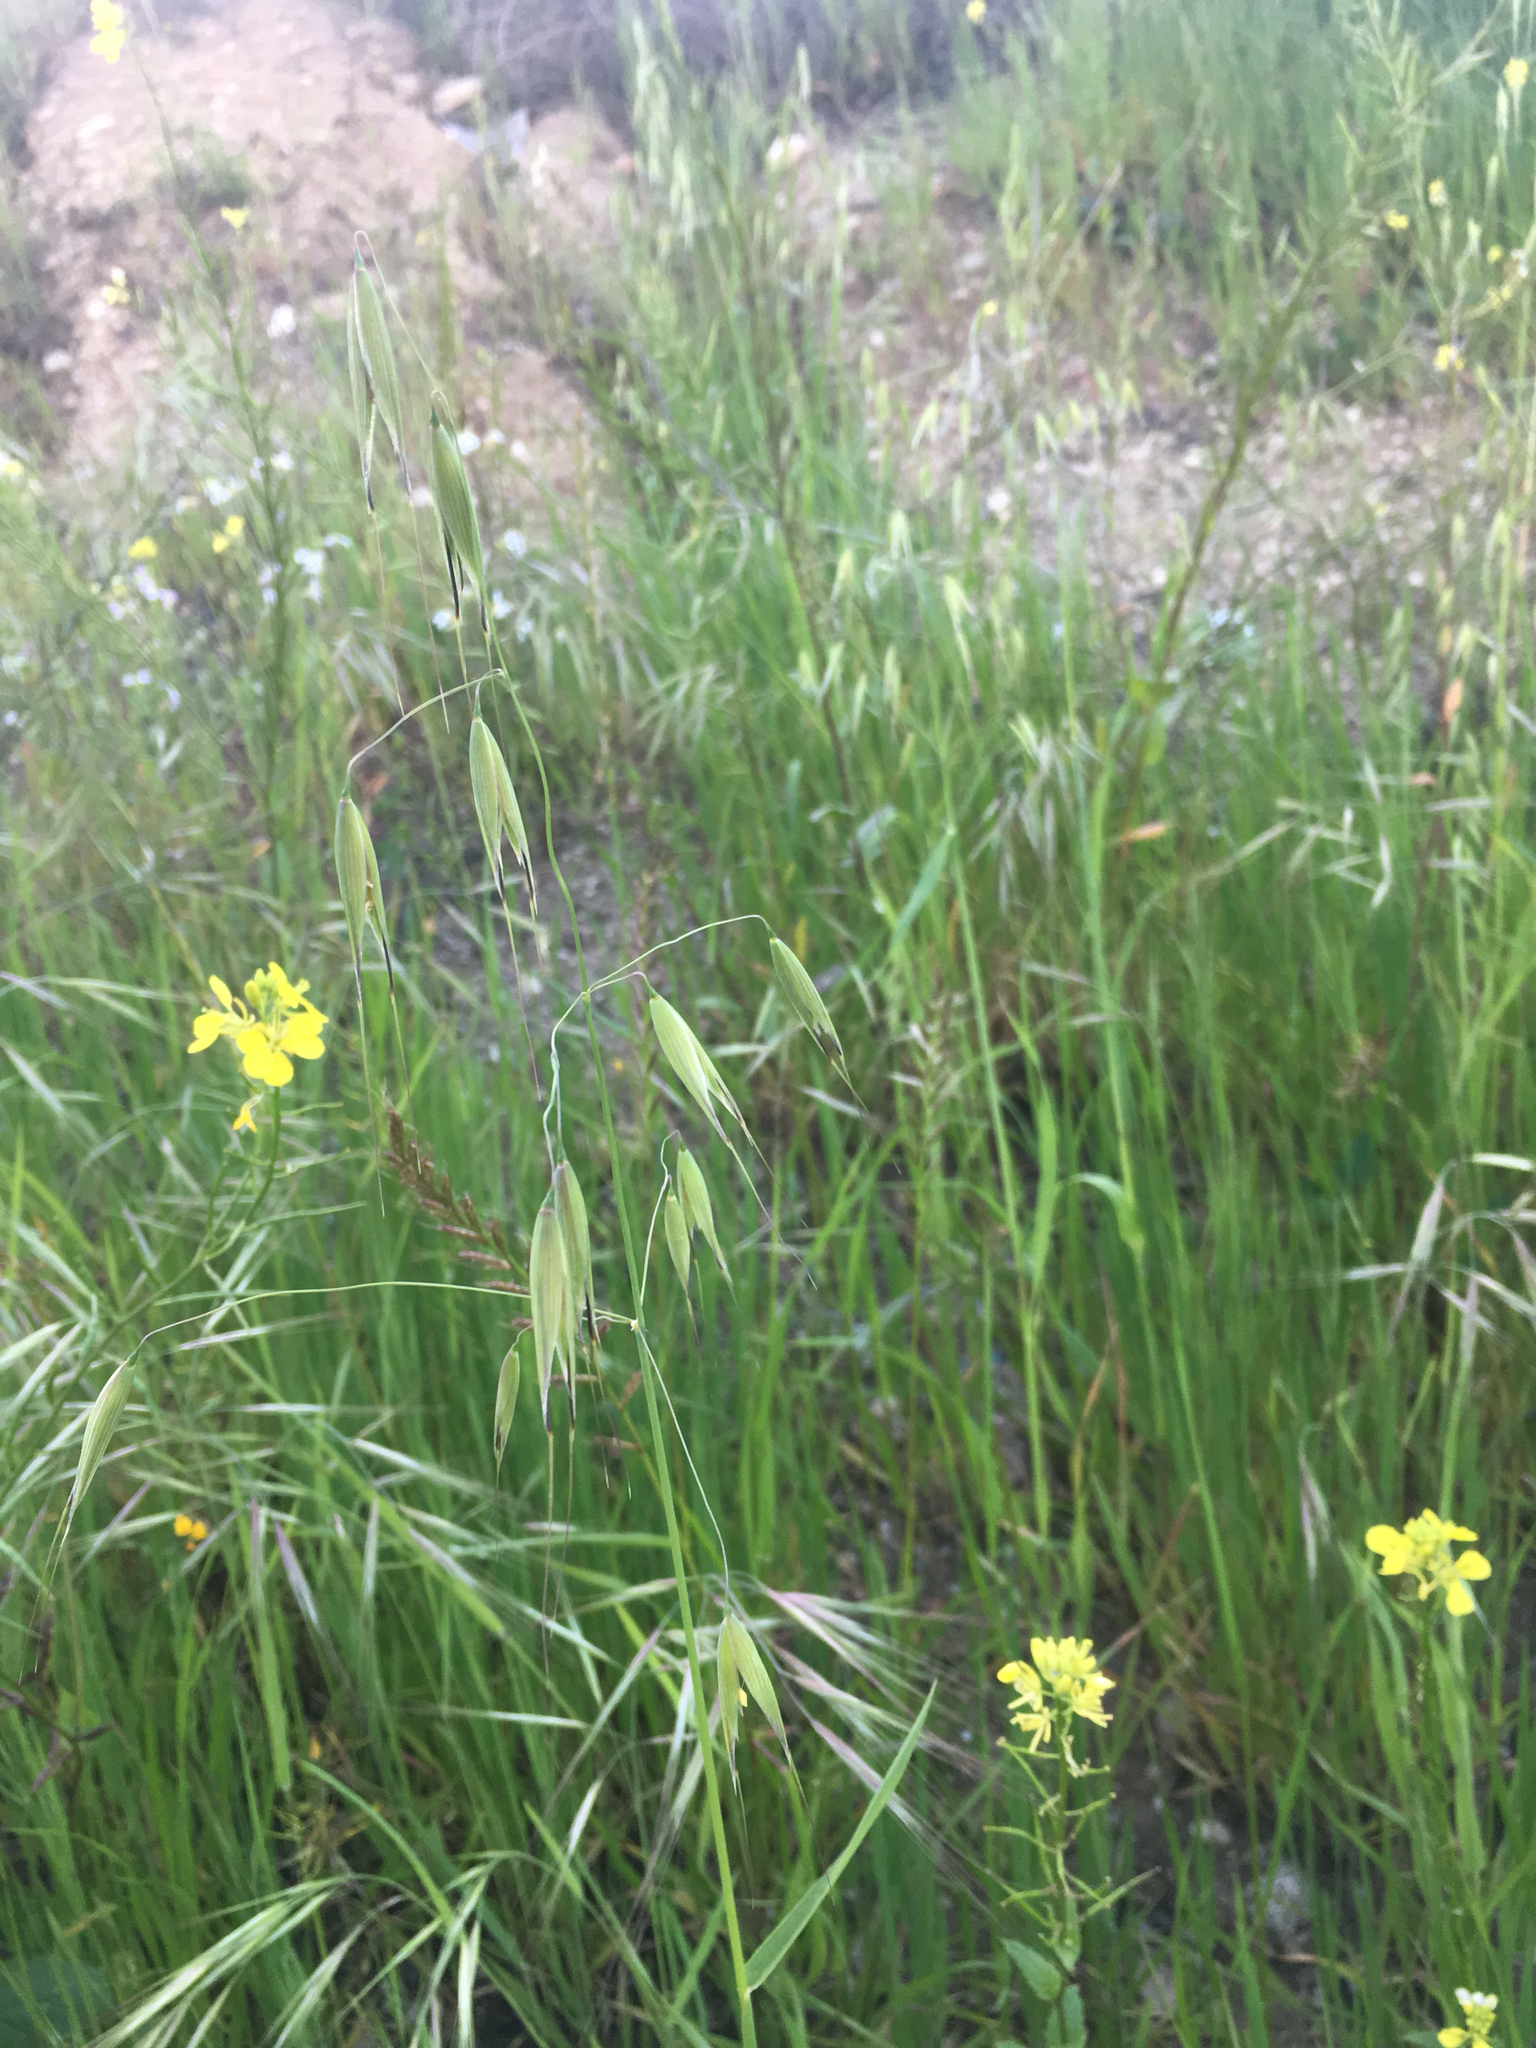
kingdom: Plantae
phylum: Tracheophyta
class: Liliopsida
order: Poales
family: Poaceae
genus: Avena
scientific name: Avena fatua
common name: Wild oat
